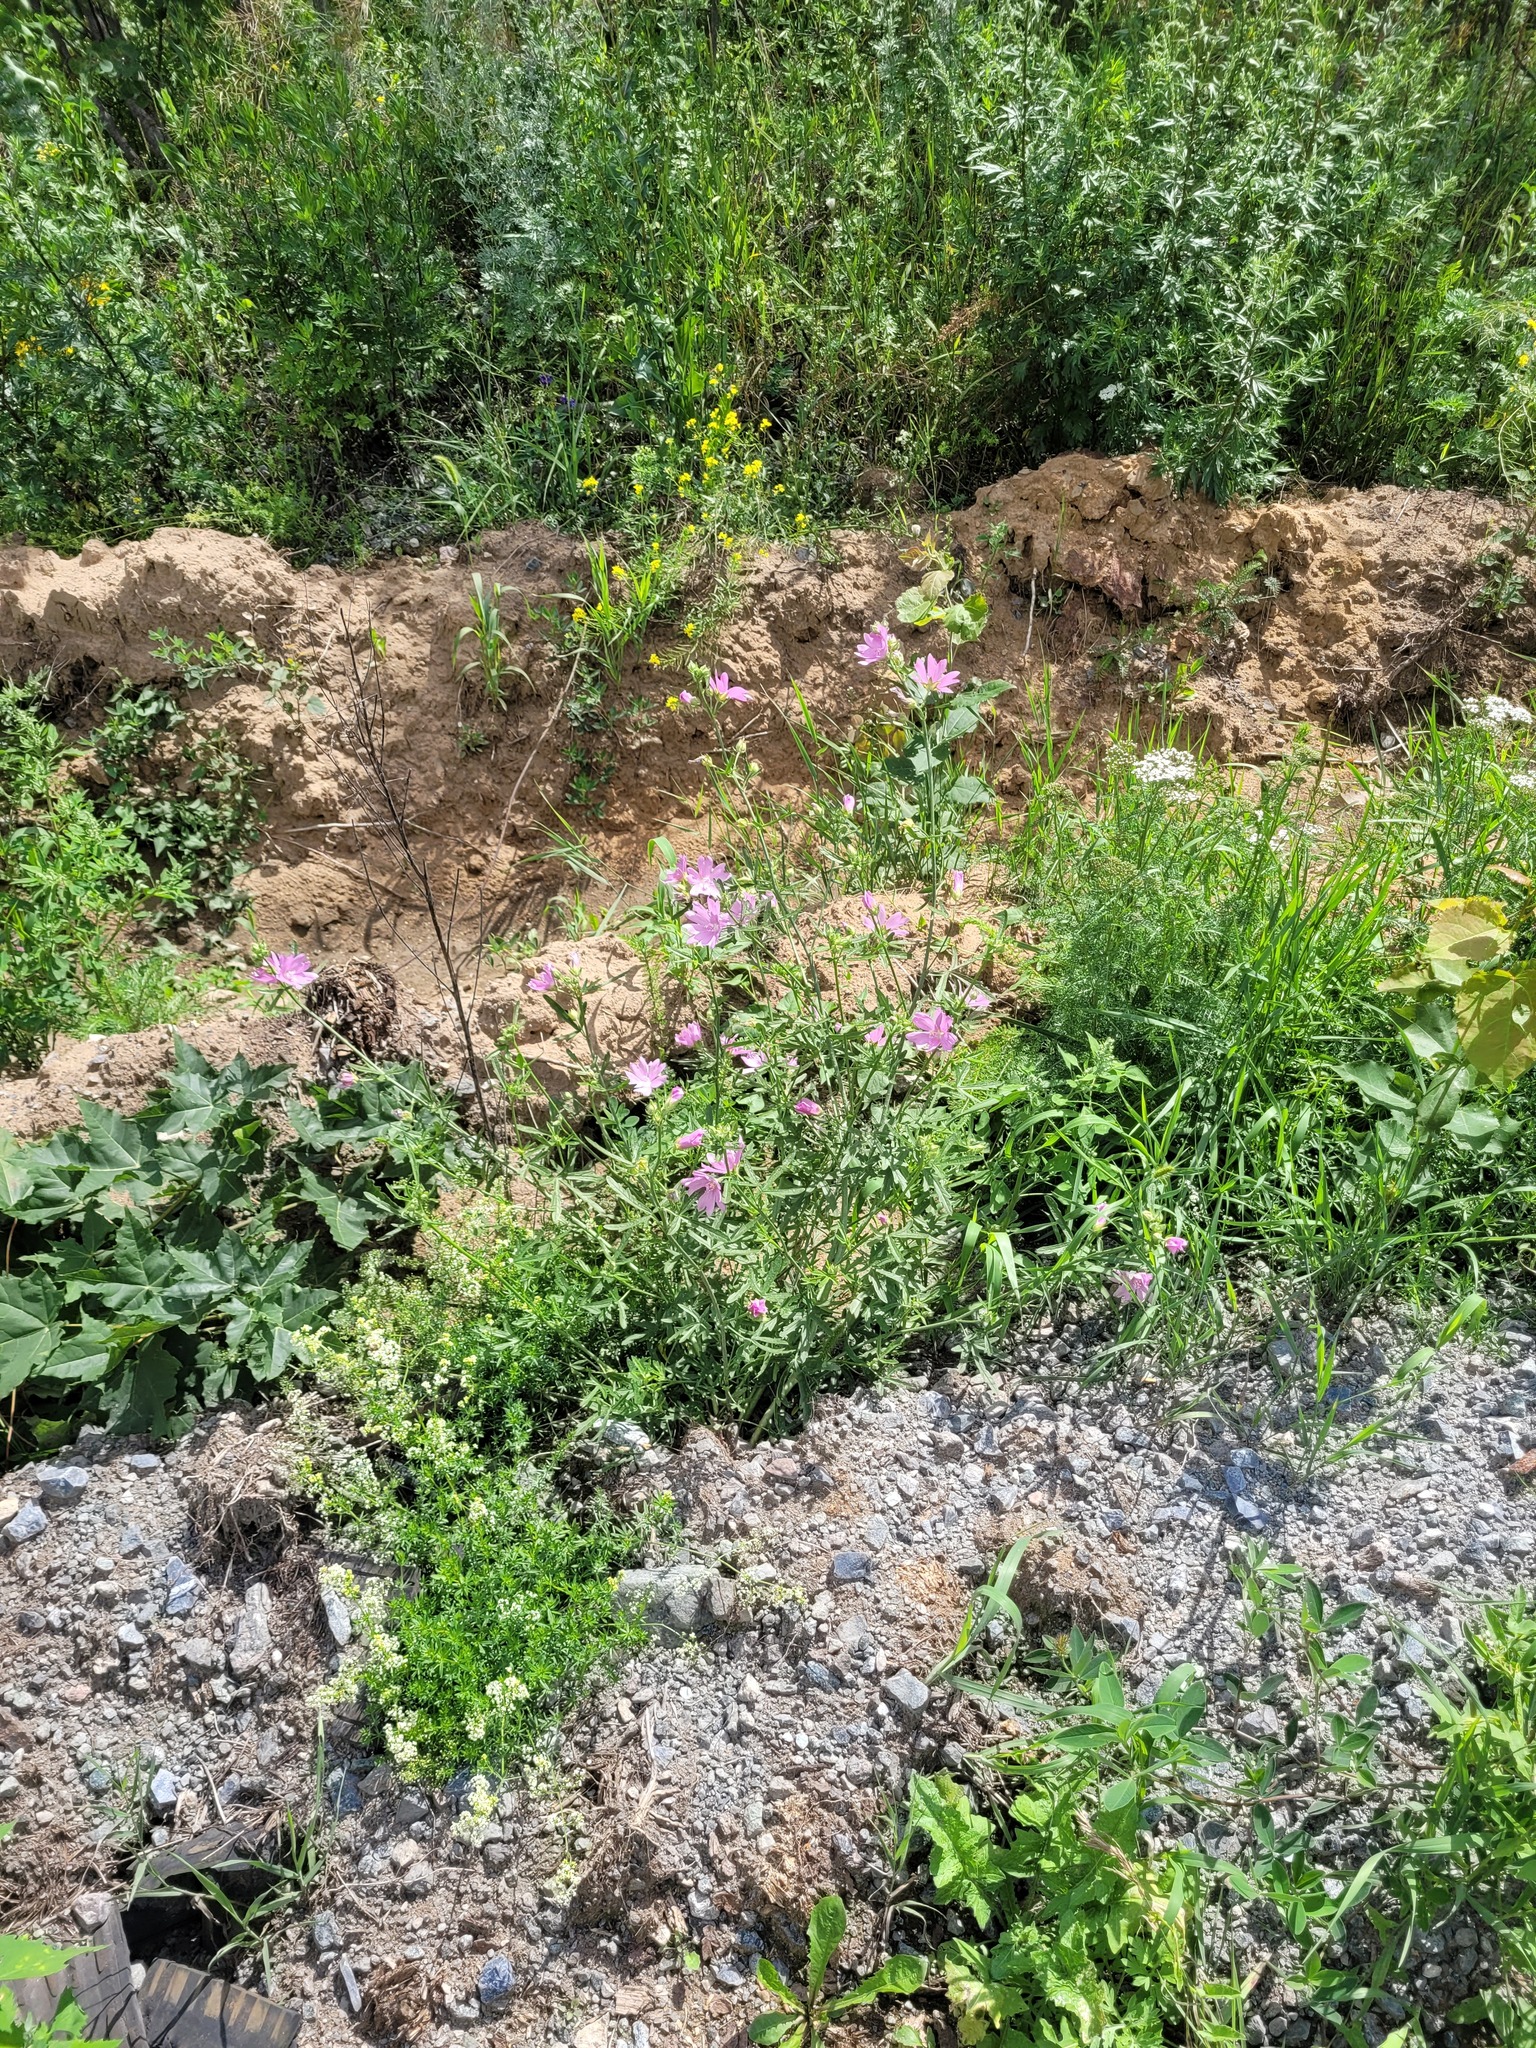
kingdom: Plantae
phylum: Tracheophyta
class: Magnoliopsida
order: Malvales
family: Malvaceae
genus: Malva
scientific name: Malva moschata
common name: Musk mallow
